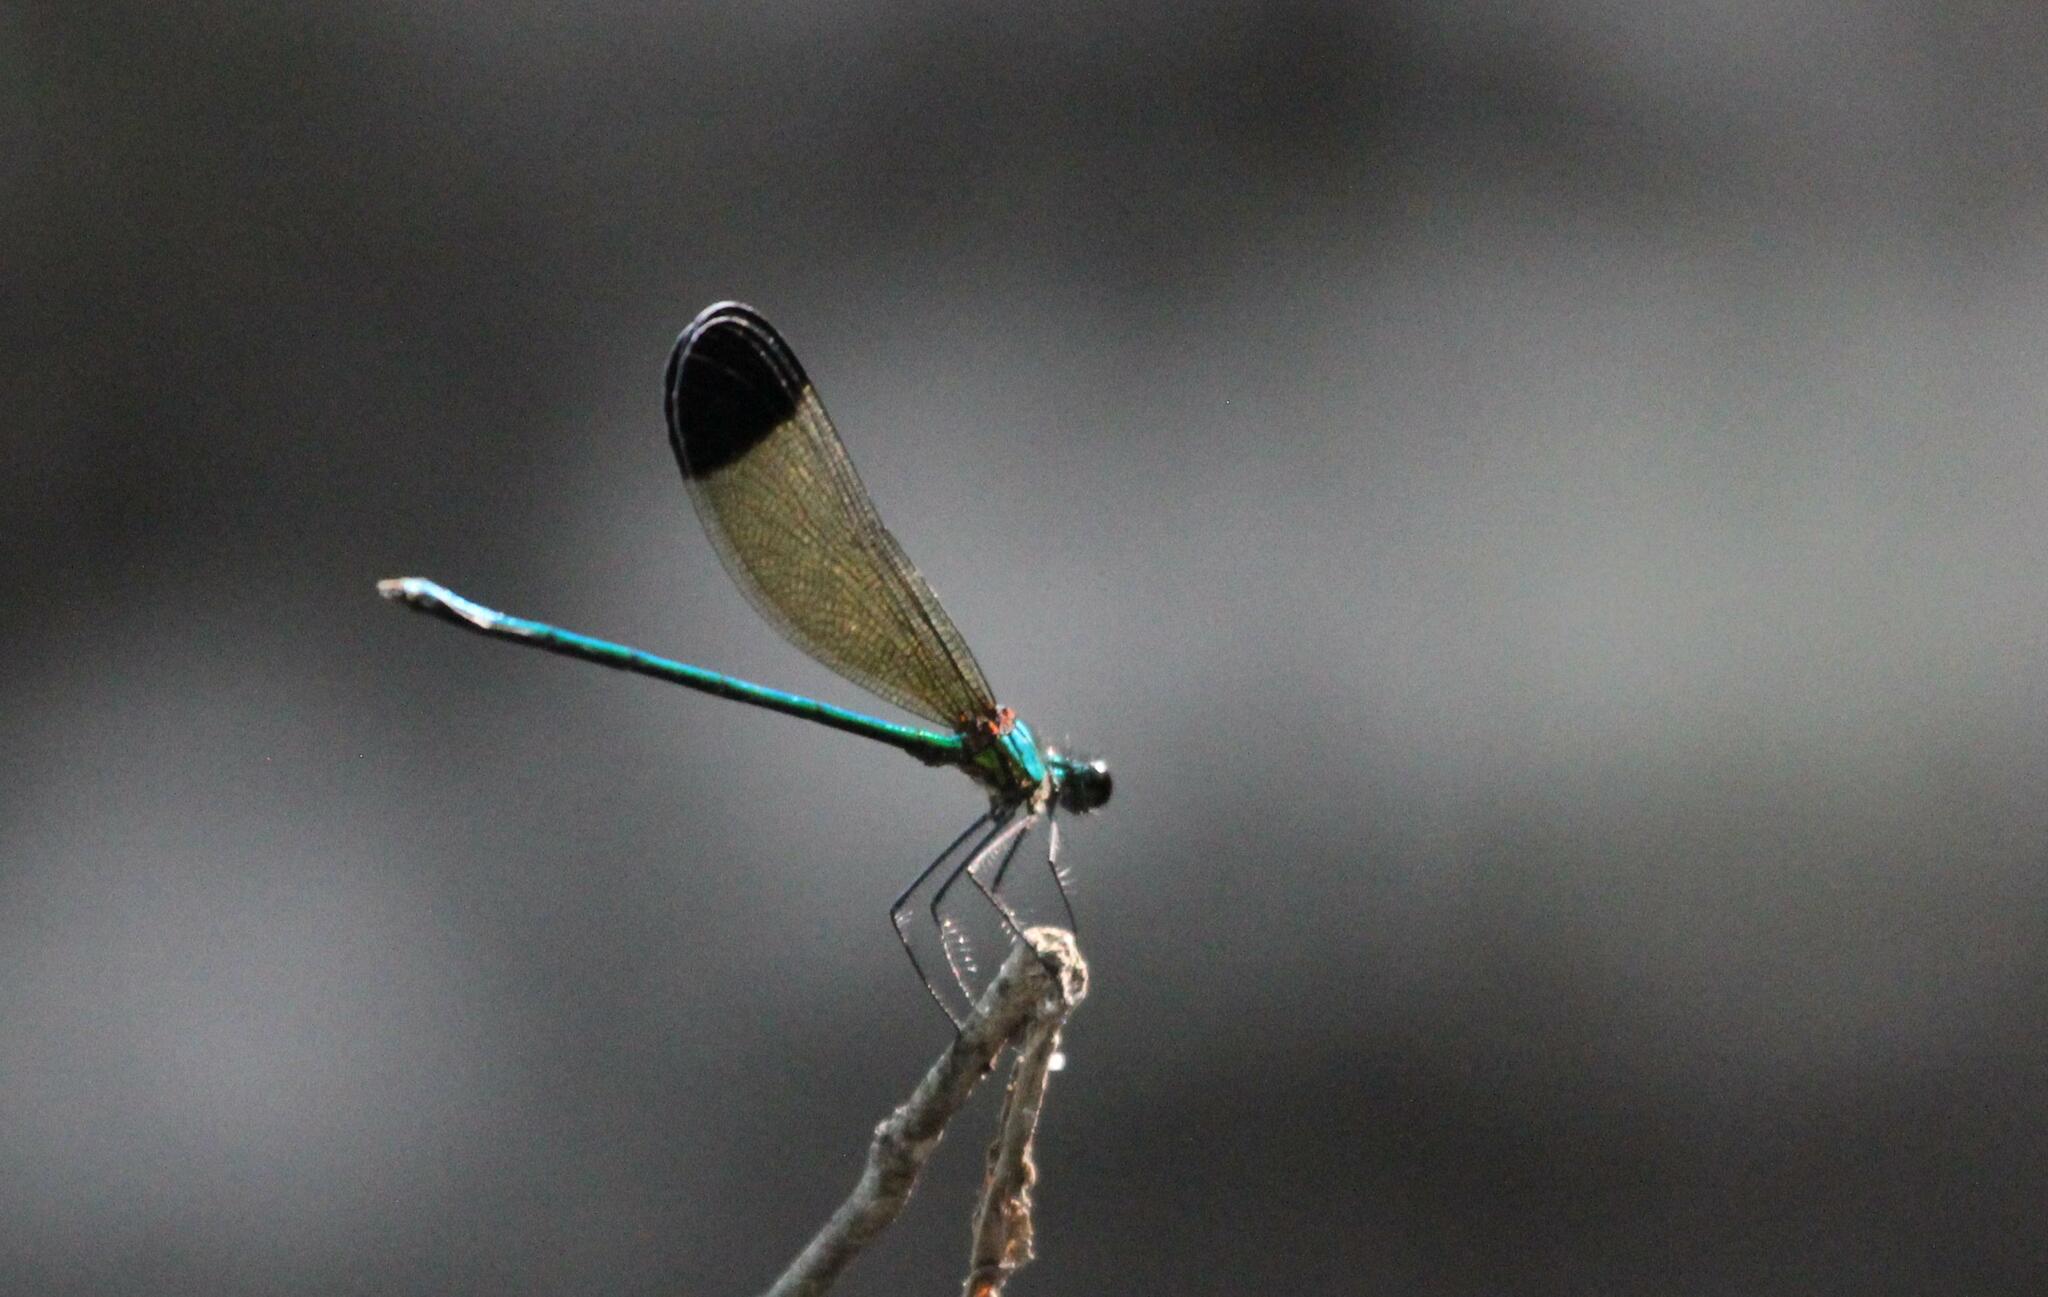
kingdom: Animalia
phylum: Arthropoda
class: Insecta
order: Odonata
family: Calopterygidae
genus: Calopteryx
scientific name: Calopteryx dimidiata
